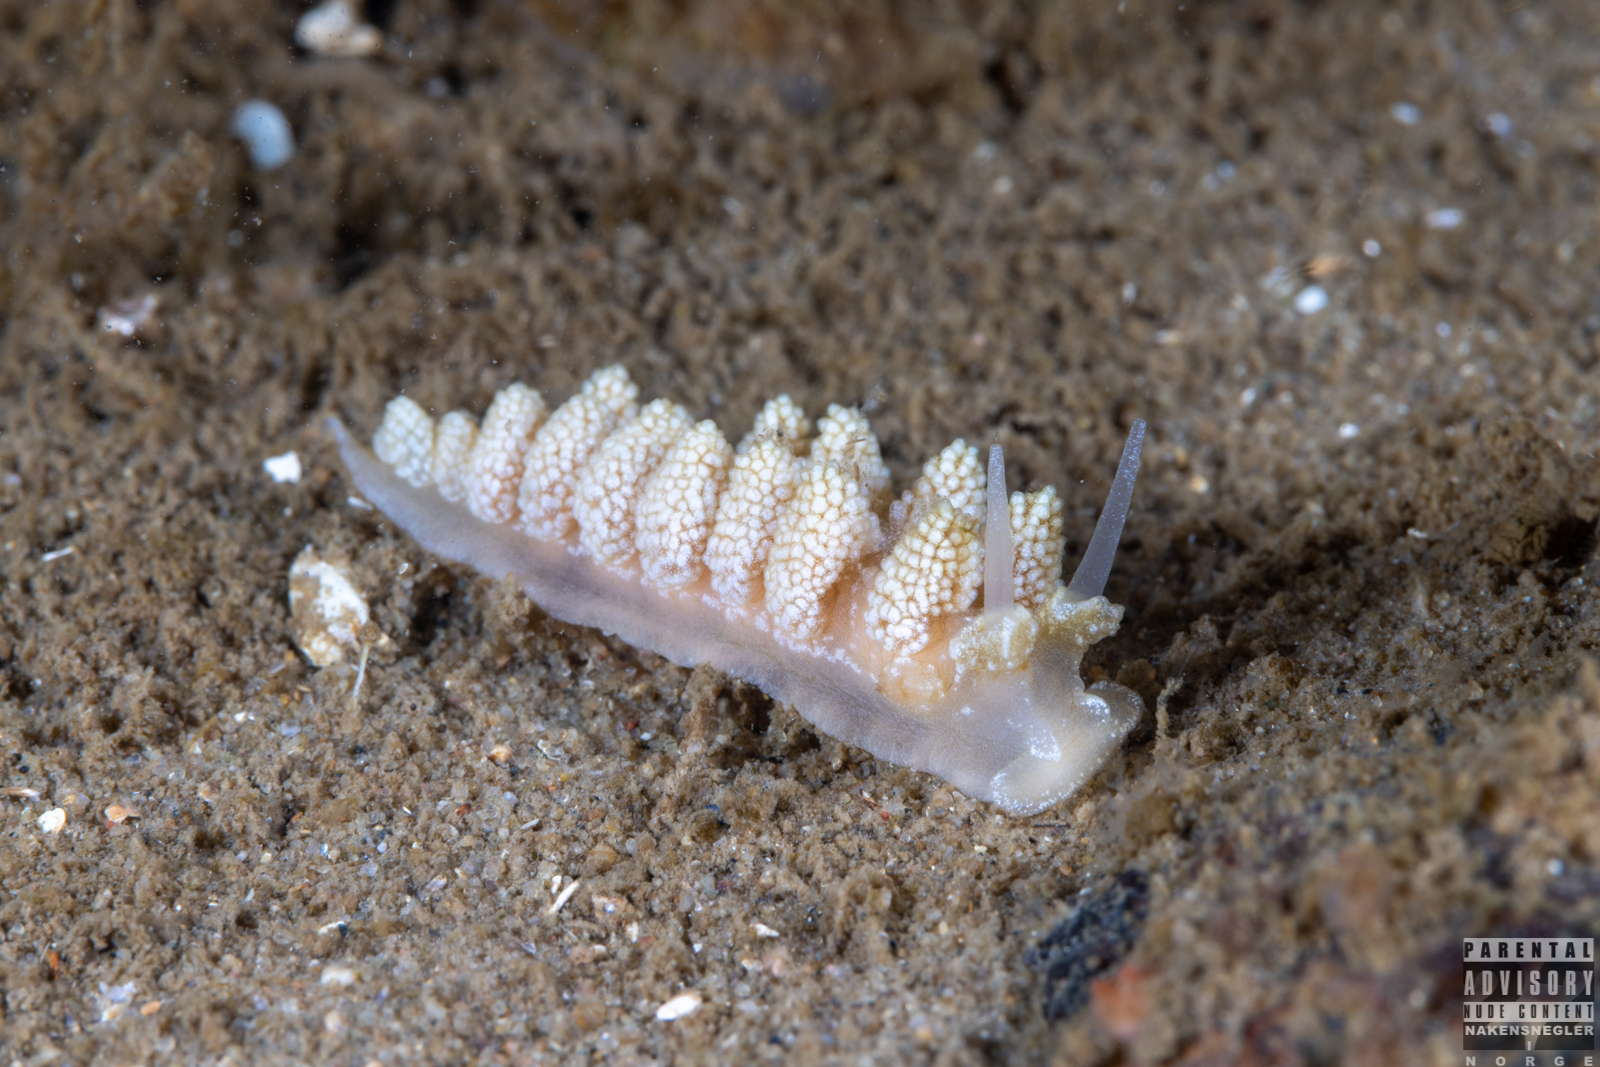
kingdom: Animalia
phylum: Mollusca
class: Gastropoda
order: Nudibranchia
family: Dotidae
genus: Doto
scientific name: Doto fragilis
